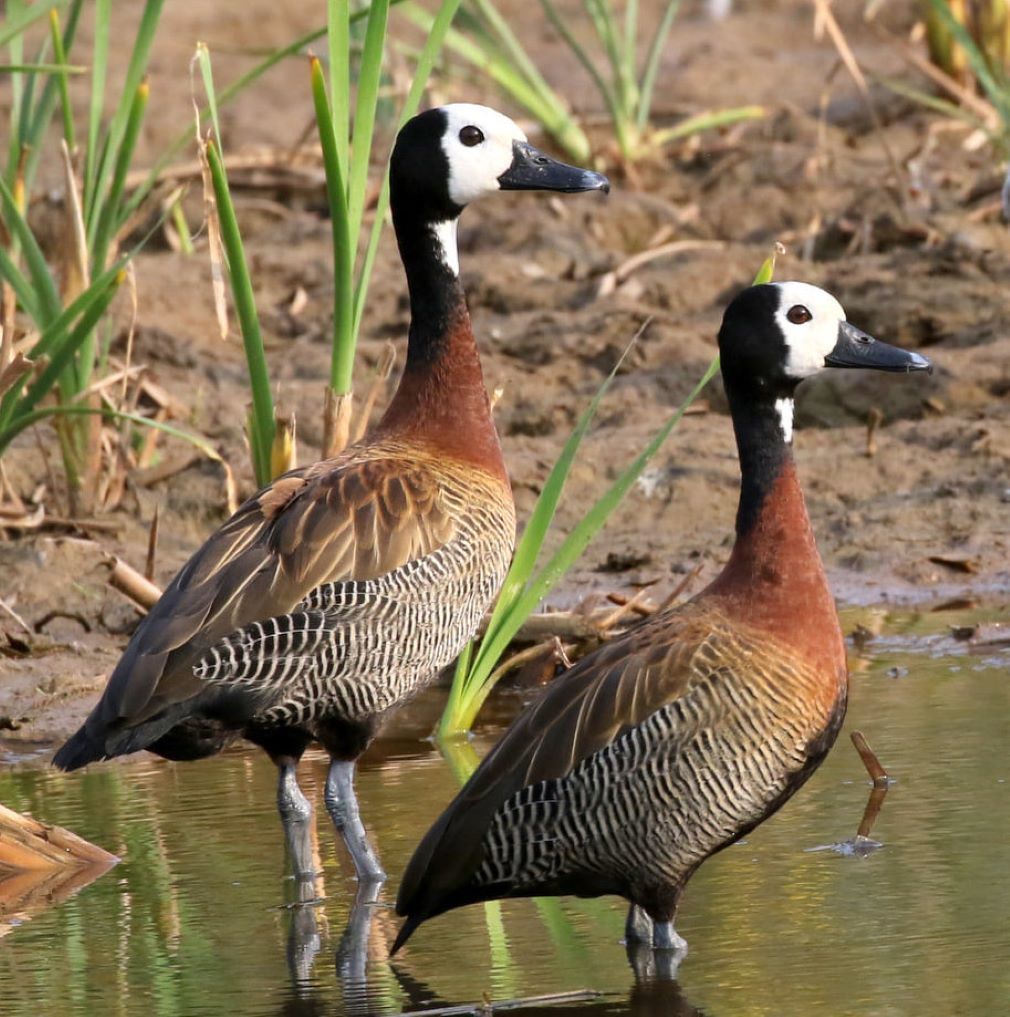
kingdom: Animalia
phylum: Chordata
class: Aves
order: Anseriformes
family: Anatidae
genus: Dendrocygna
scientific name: Dendrocygna viduata
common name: White-faced whistling duck
